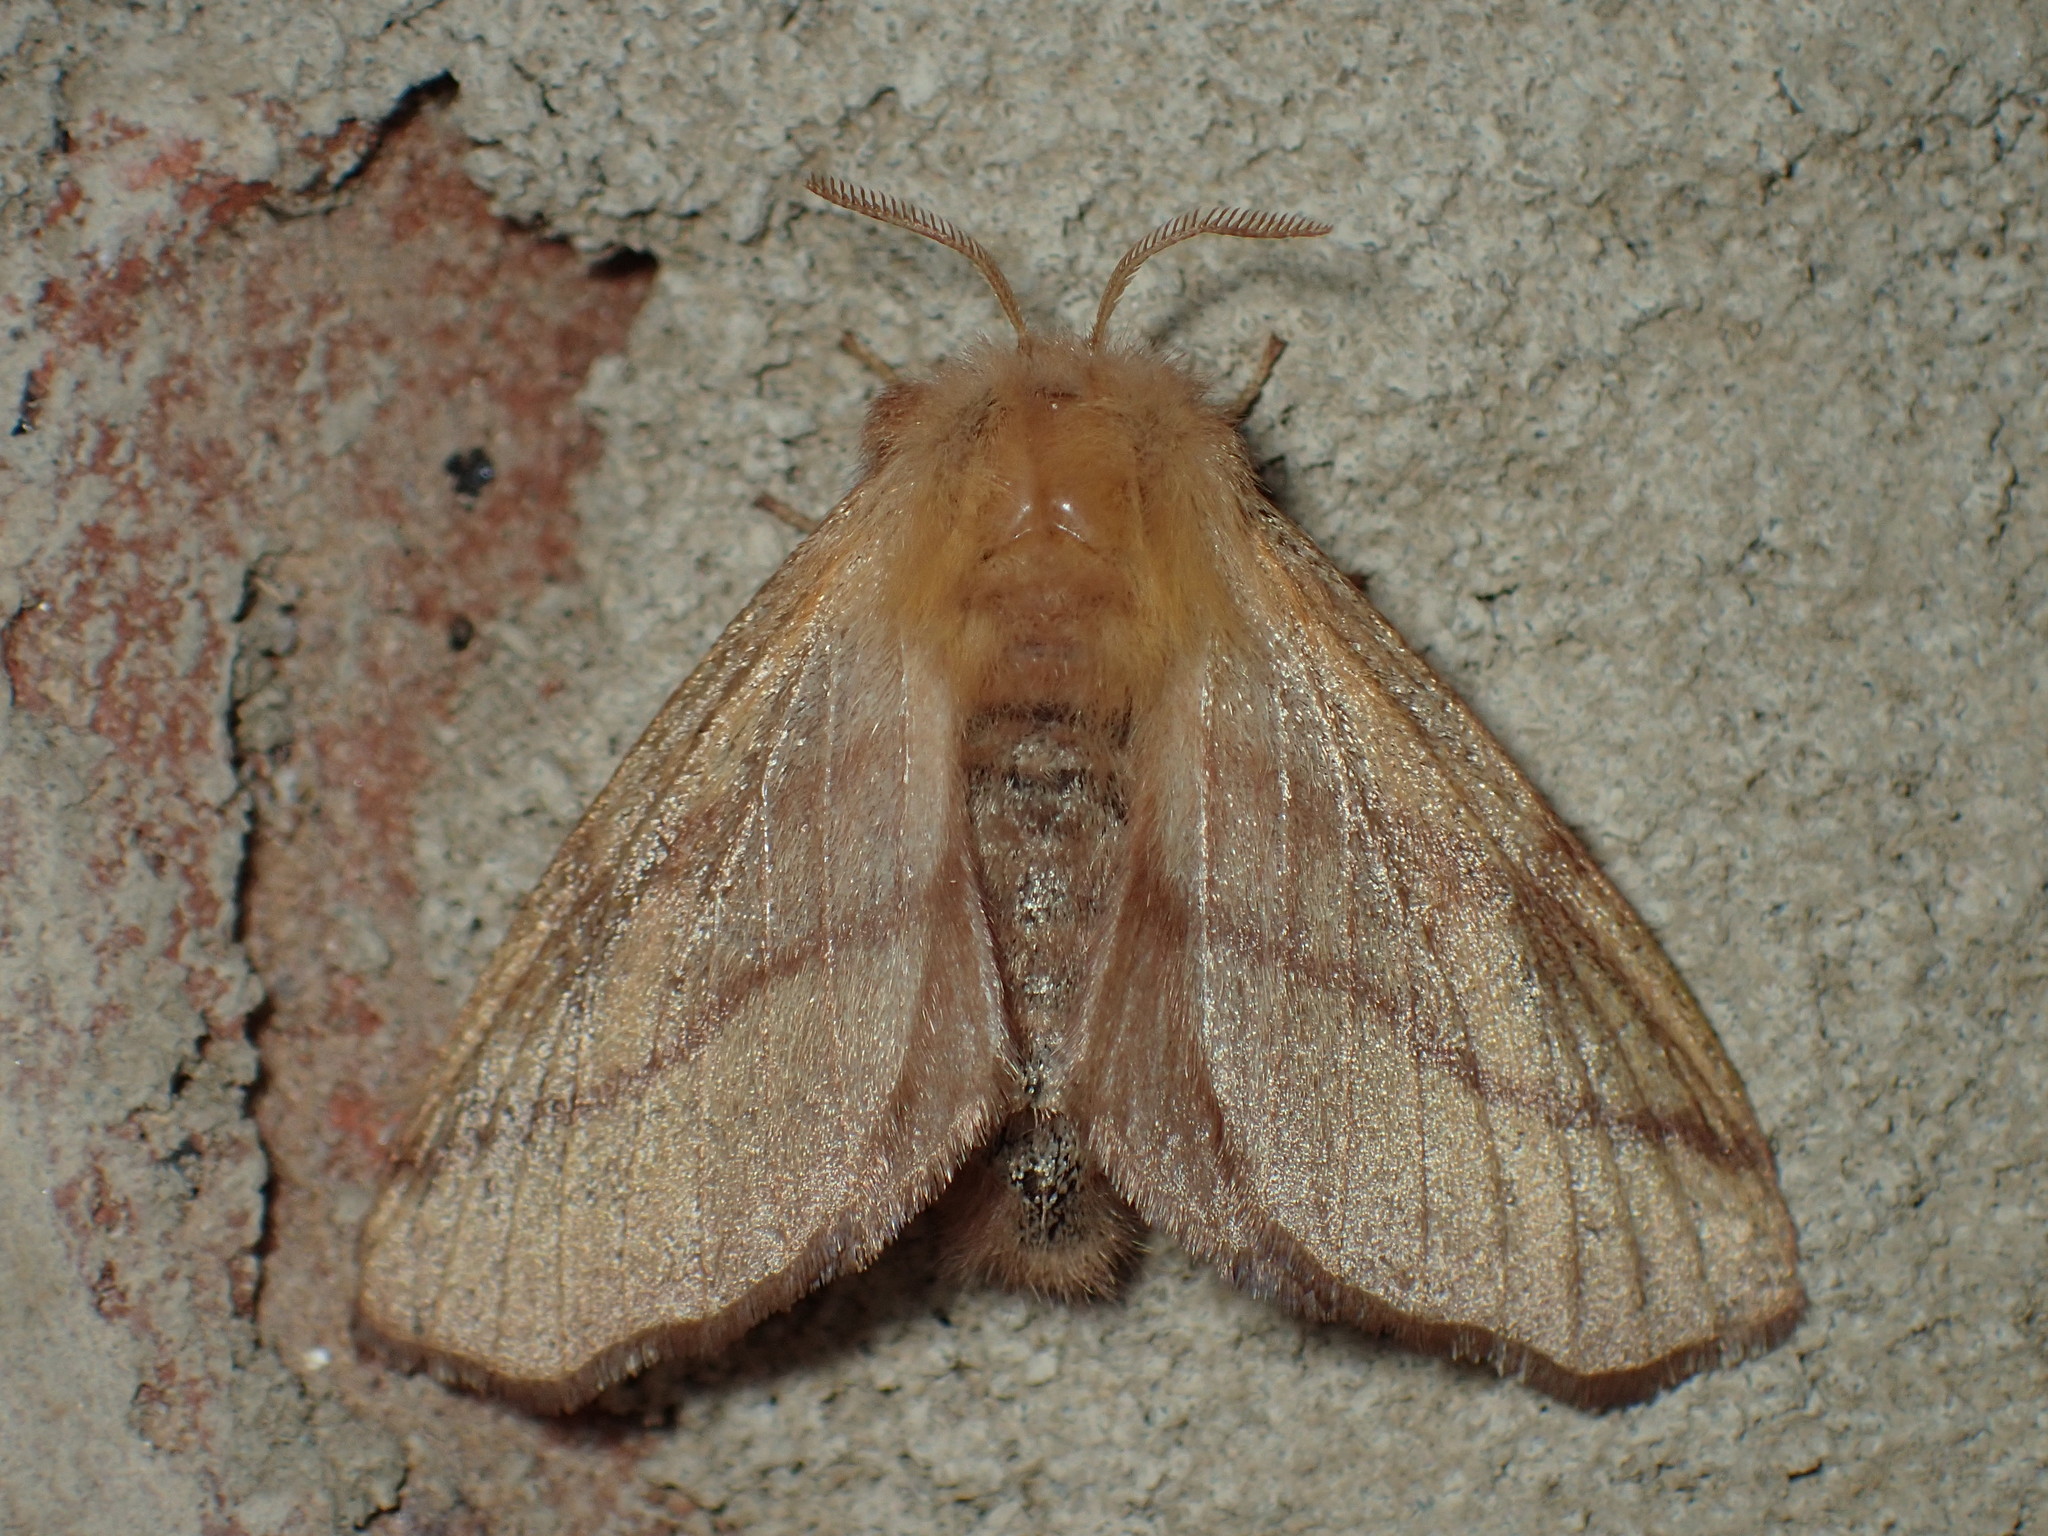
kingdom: Animalia
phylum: Arthropoda
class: Insecta
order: Lepidoptera
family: Lasiocampidae
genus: Malacosoma
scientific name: Malacosoma disstria
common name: Forest tent caterpillar
